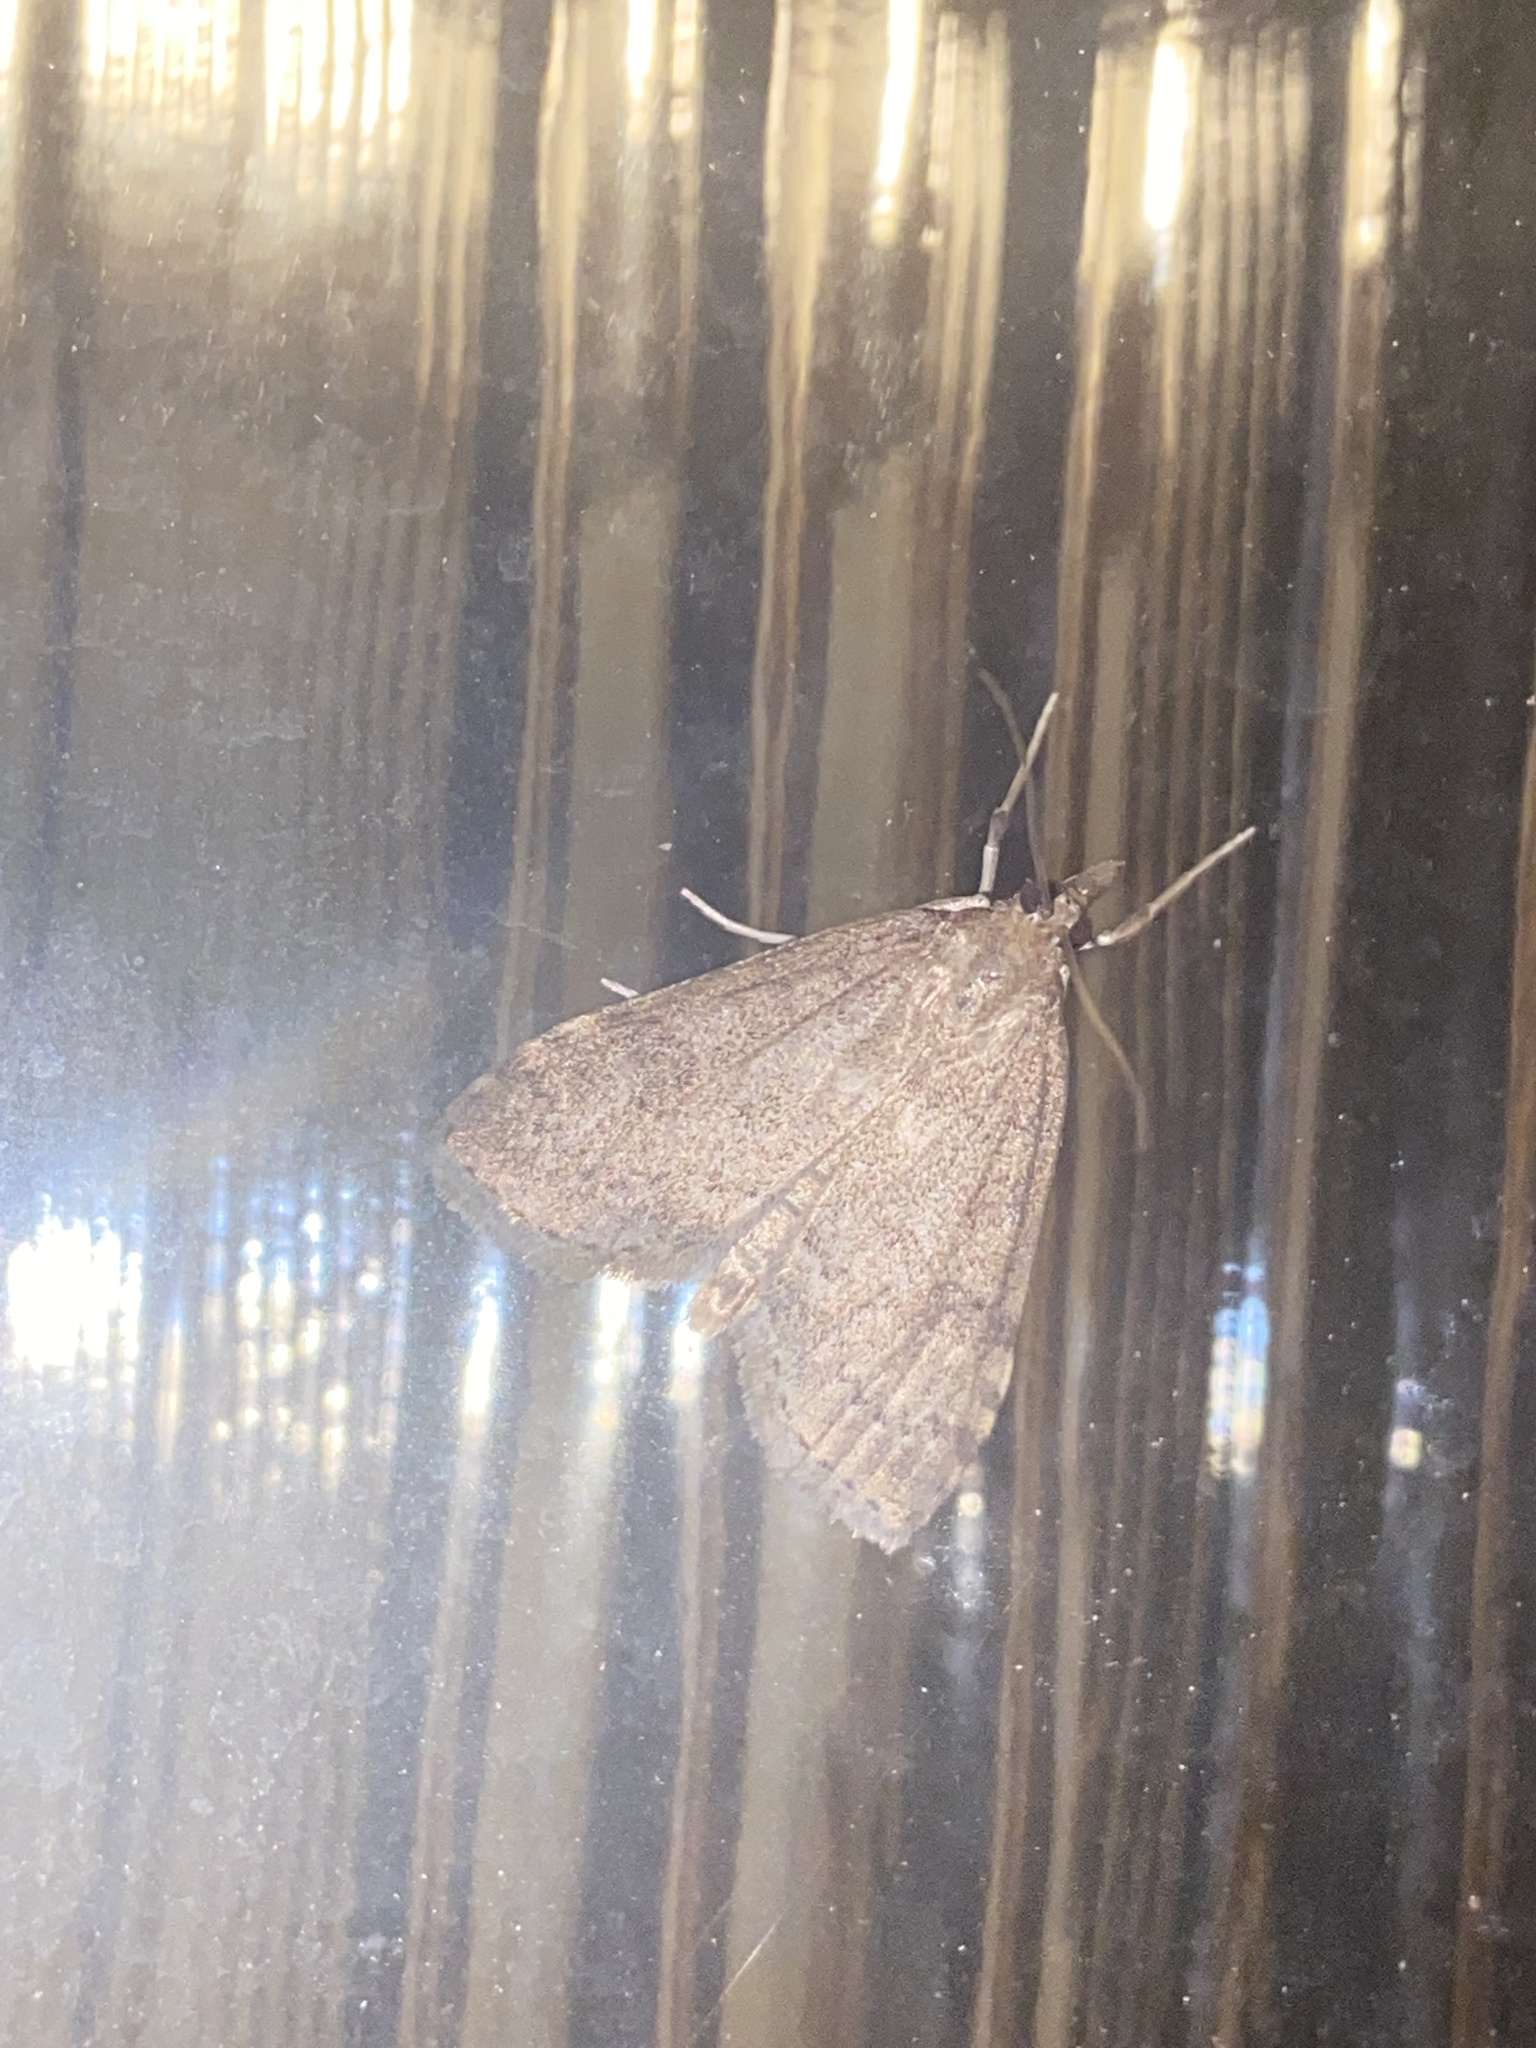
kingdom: Animalia
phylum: Arthropoda
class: Insecta
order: Lepidoptera
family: Crambidae
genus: Udea
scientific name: Udea prunalis
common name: Dusky pearl
